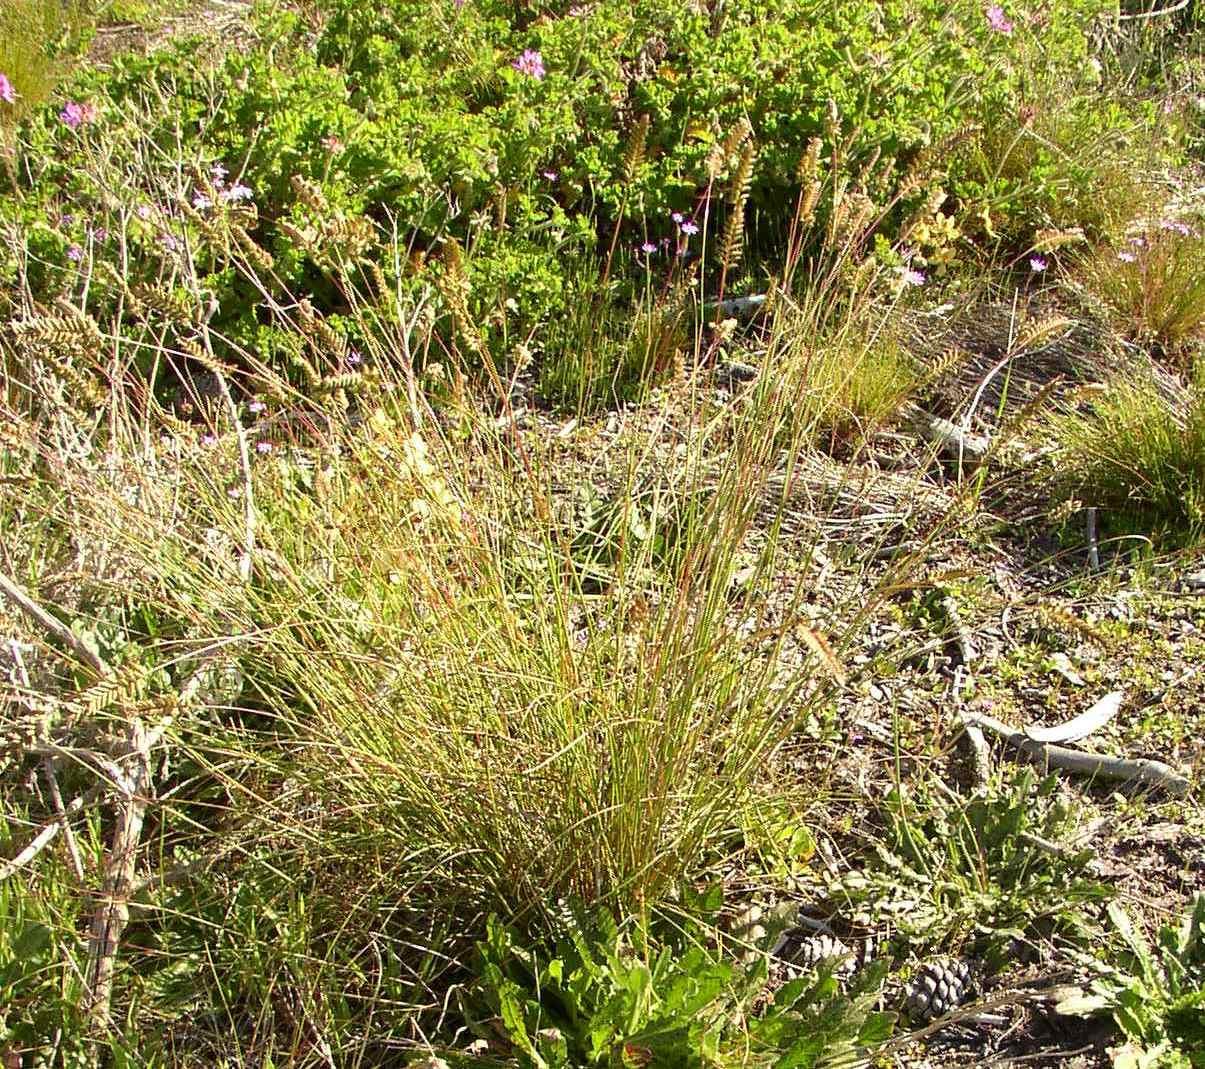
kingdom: Plantae
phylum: Tracheophyta
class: Liliopsida
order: Poales
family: Poaceae
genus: Tribolium
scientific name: Tribolium uniolae
